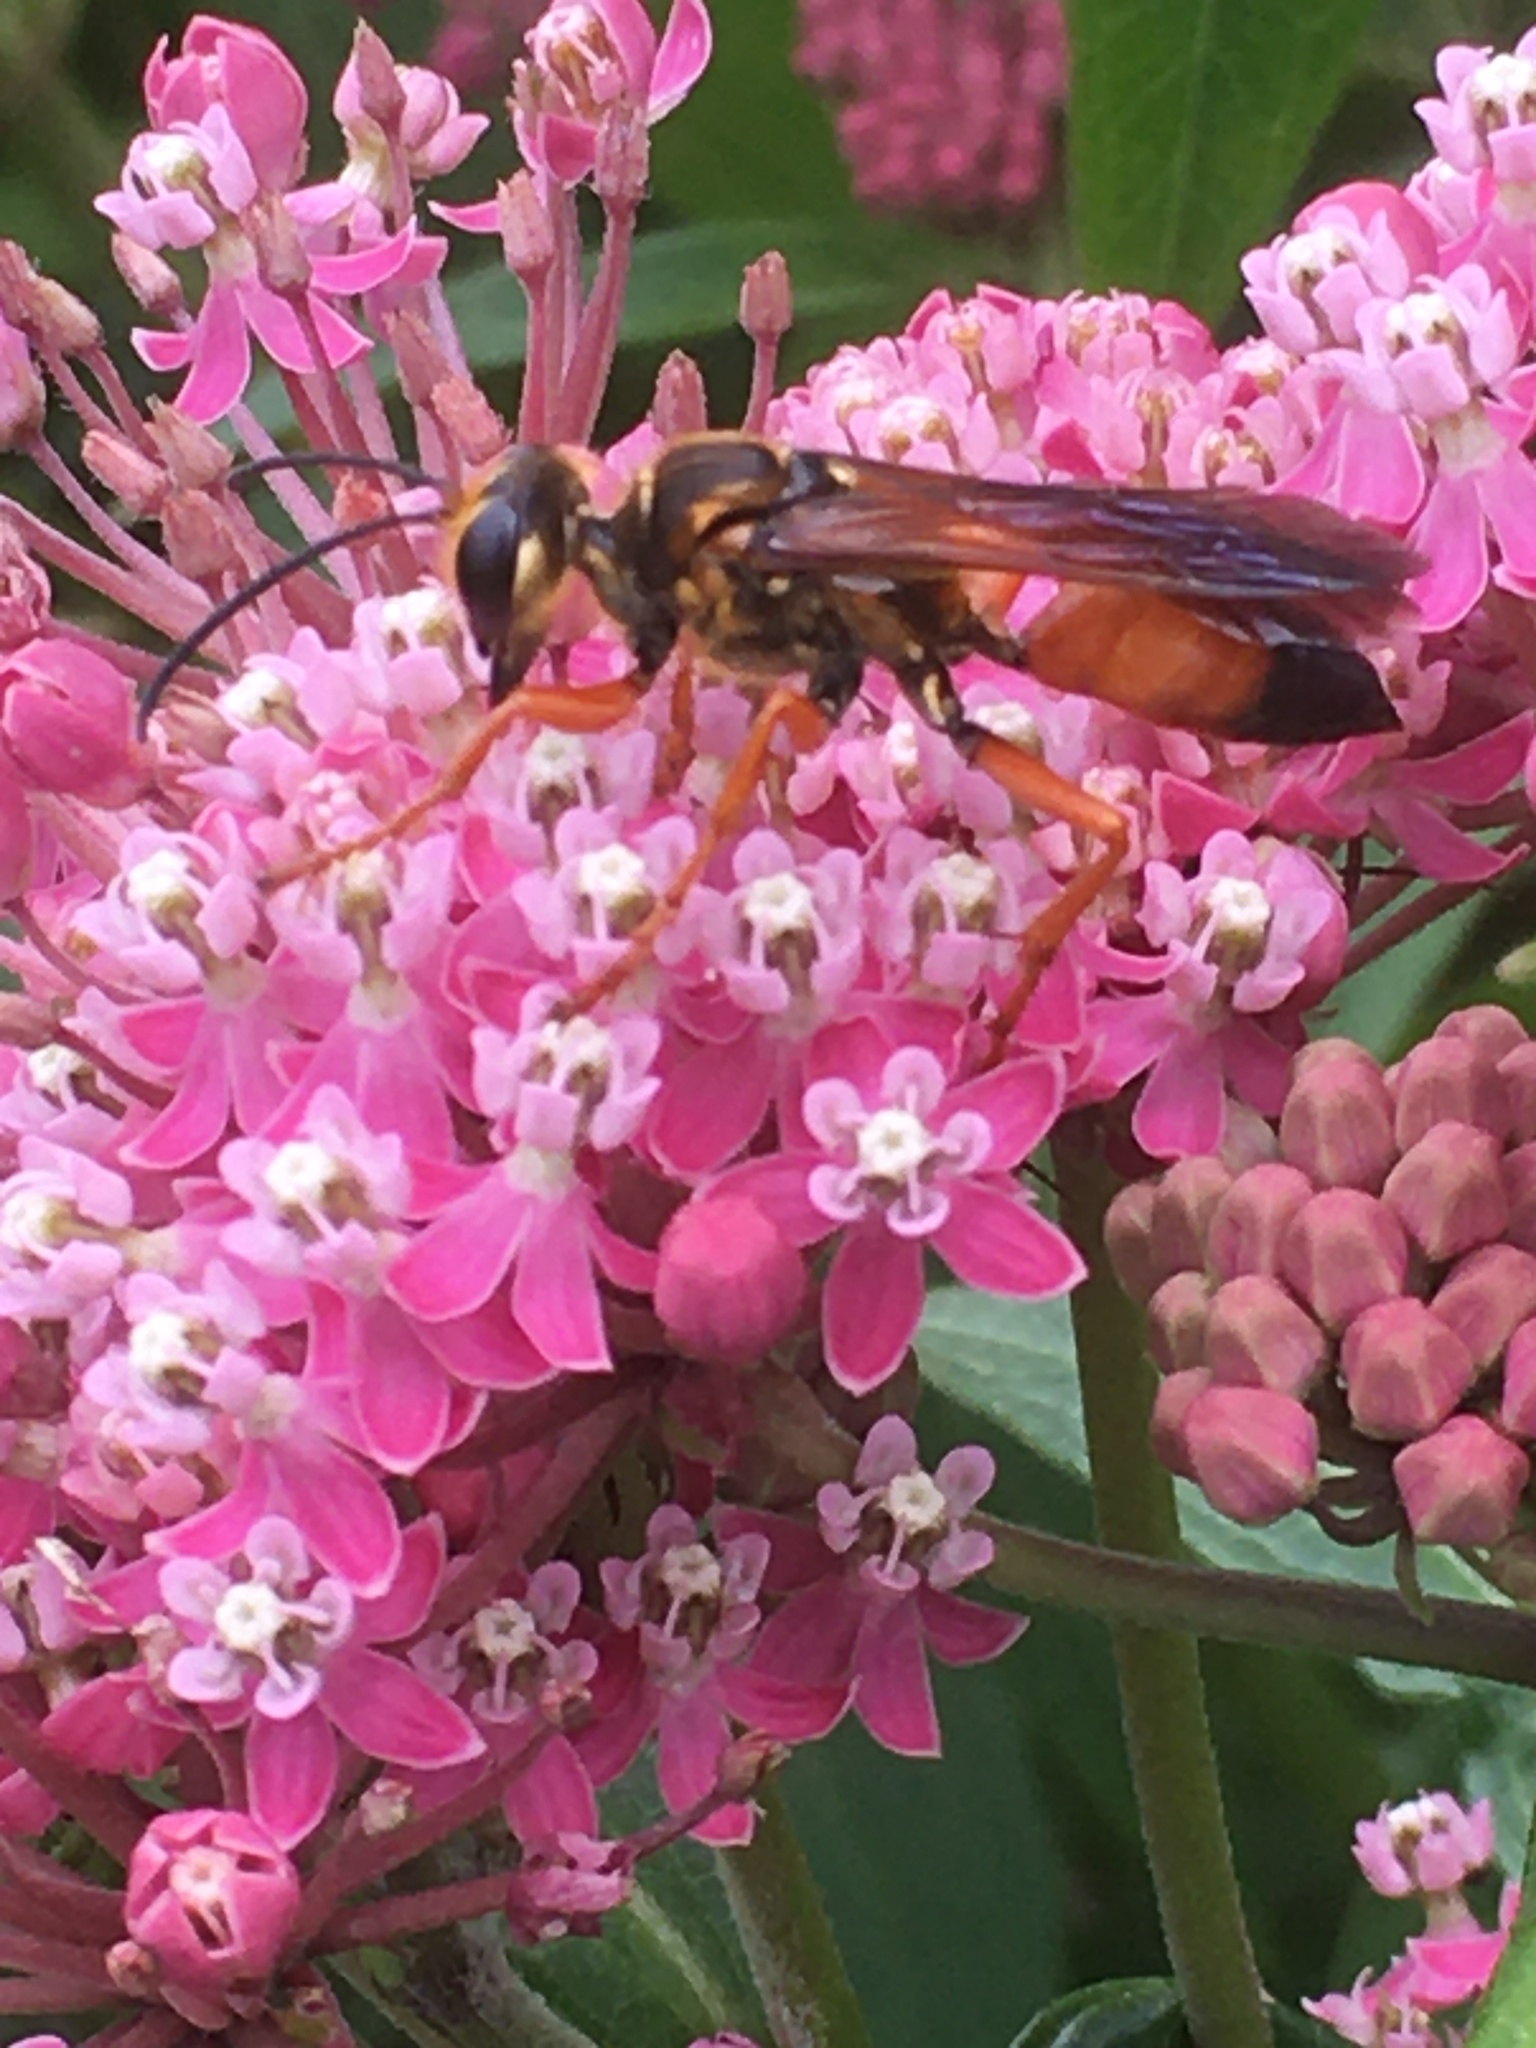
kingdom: Animalia
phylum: Arthropoda
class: Insecta
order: Hymenoptera
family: Sphecidae
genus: Sphex
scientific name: Sphex ichneumoneus
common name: Great golden digger wasp
